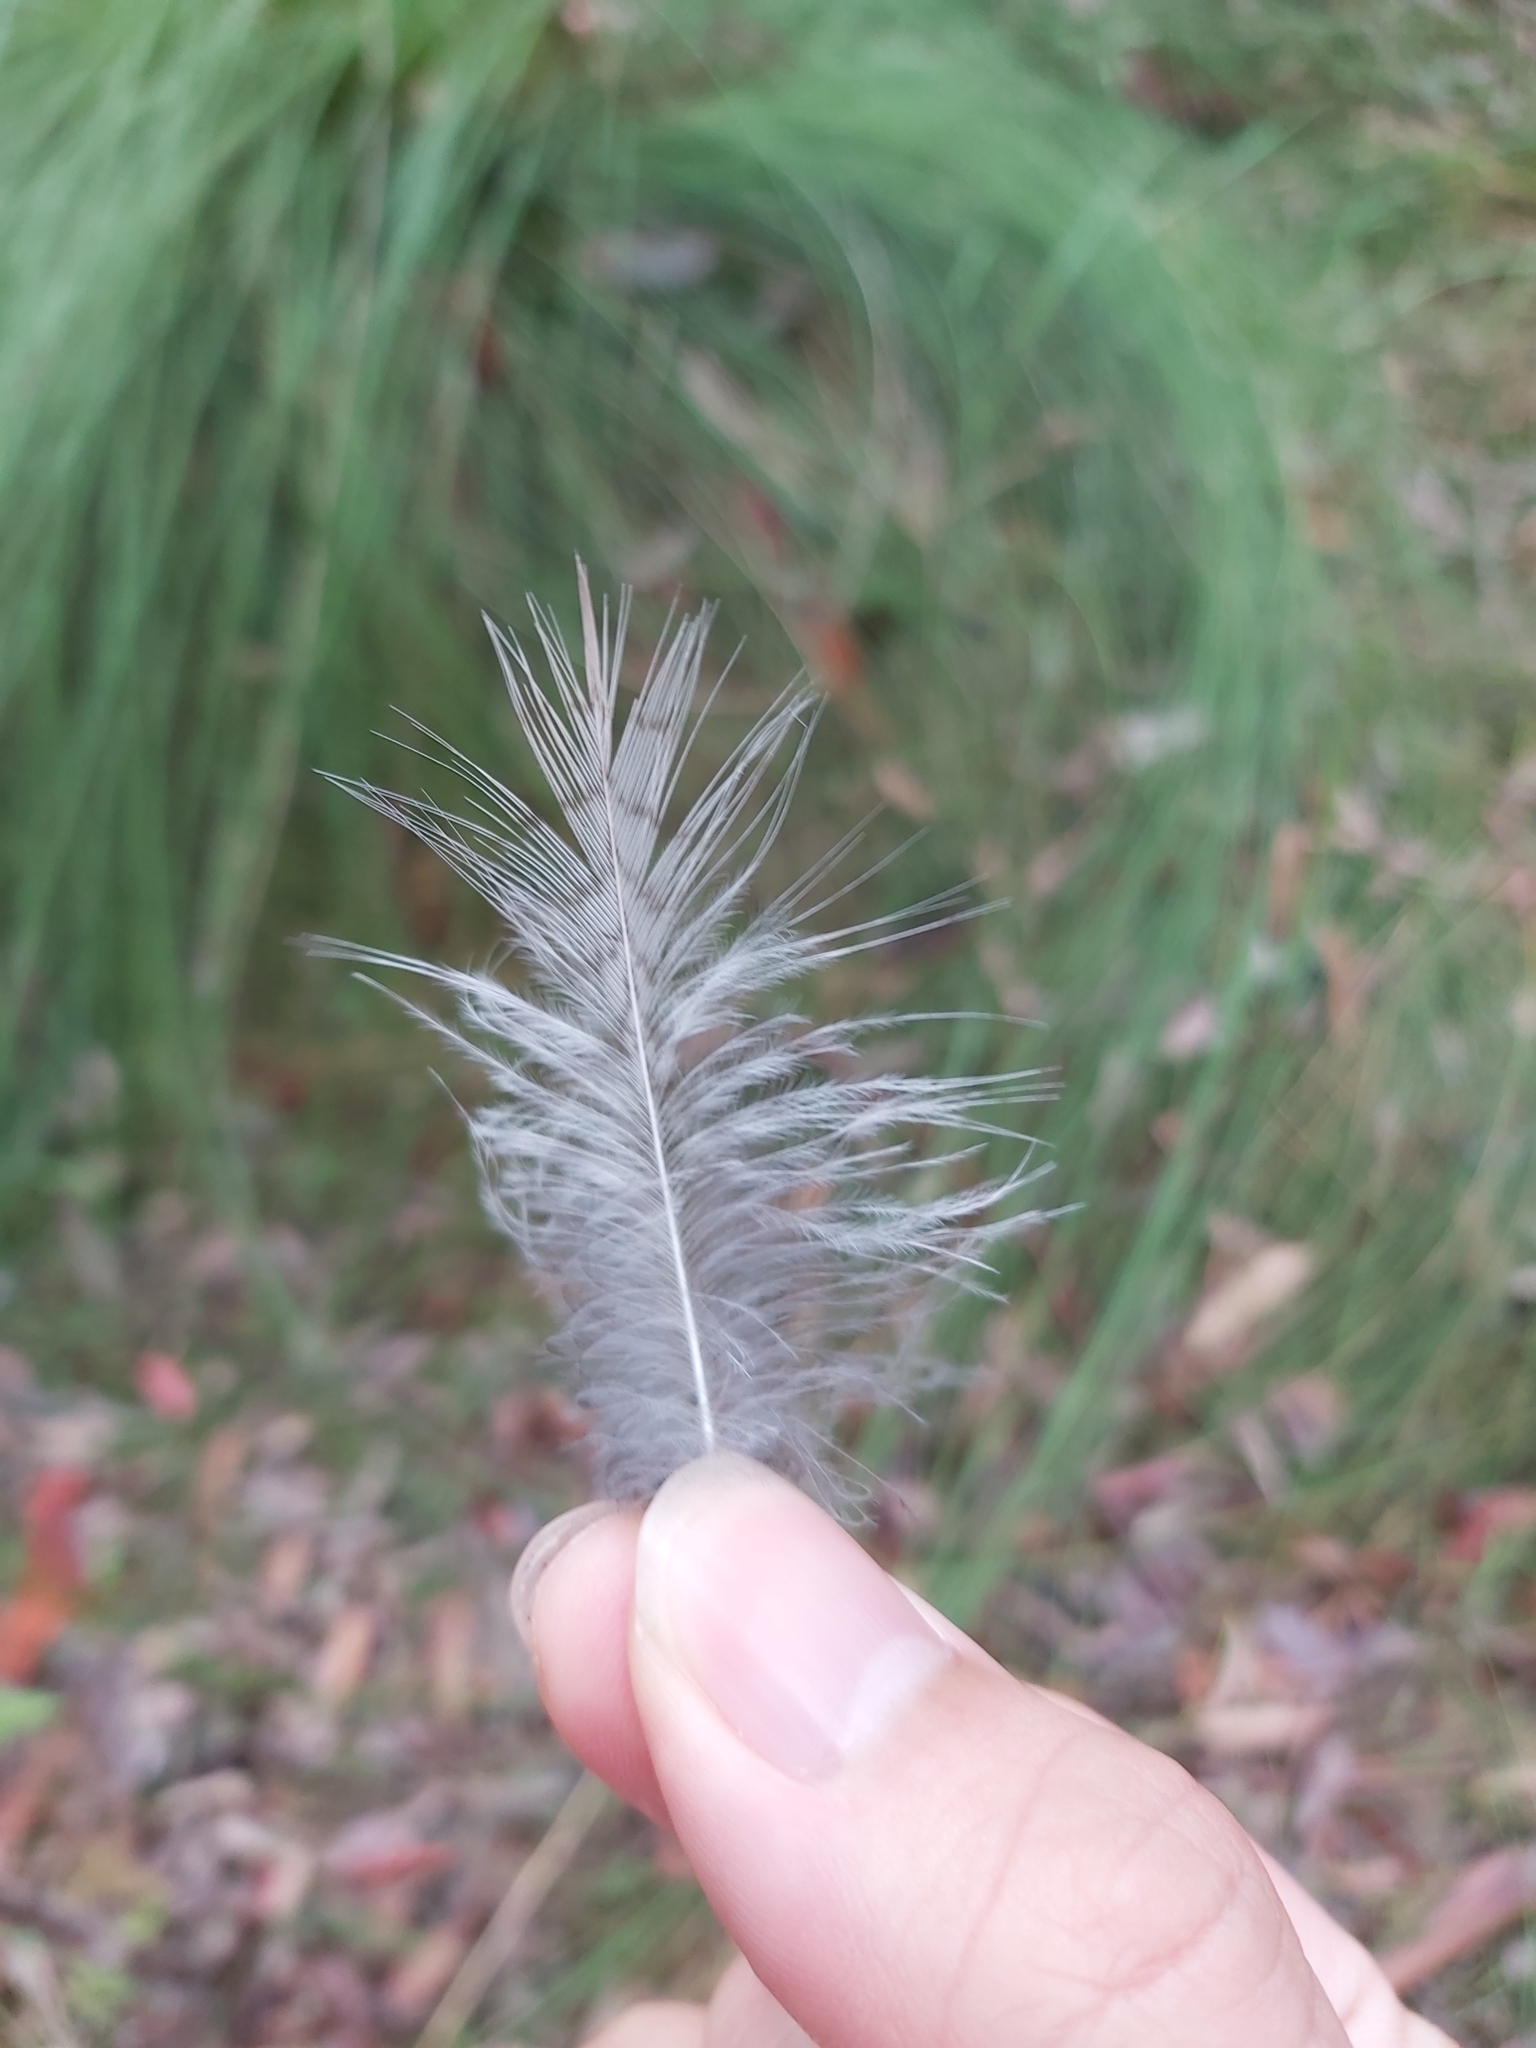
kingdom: Animalia
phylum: Chordata
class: Aves
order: Coraciiformes
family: Alcedinidae
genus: Dacelo
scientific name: Dacelo novaeguineae
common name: Laughing kookaburra
